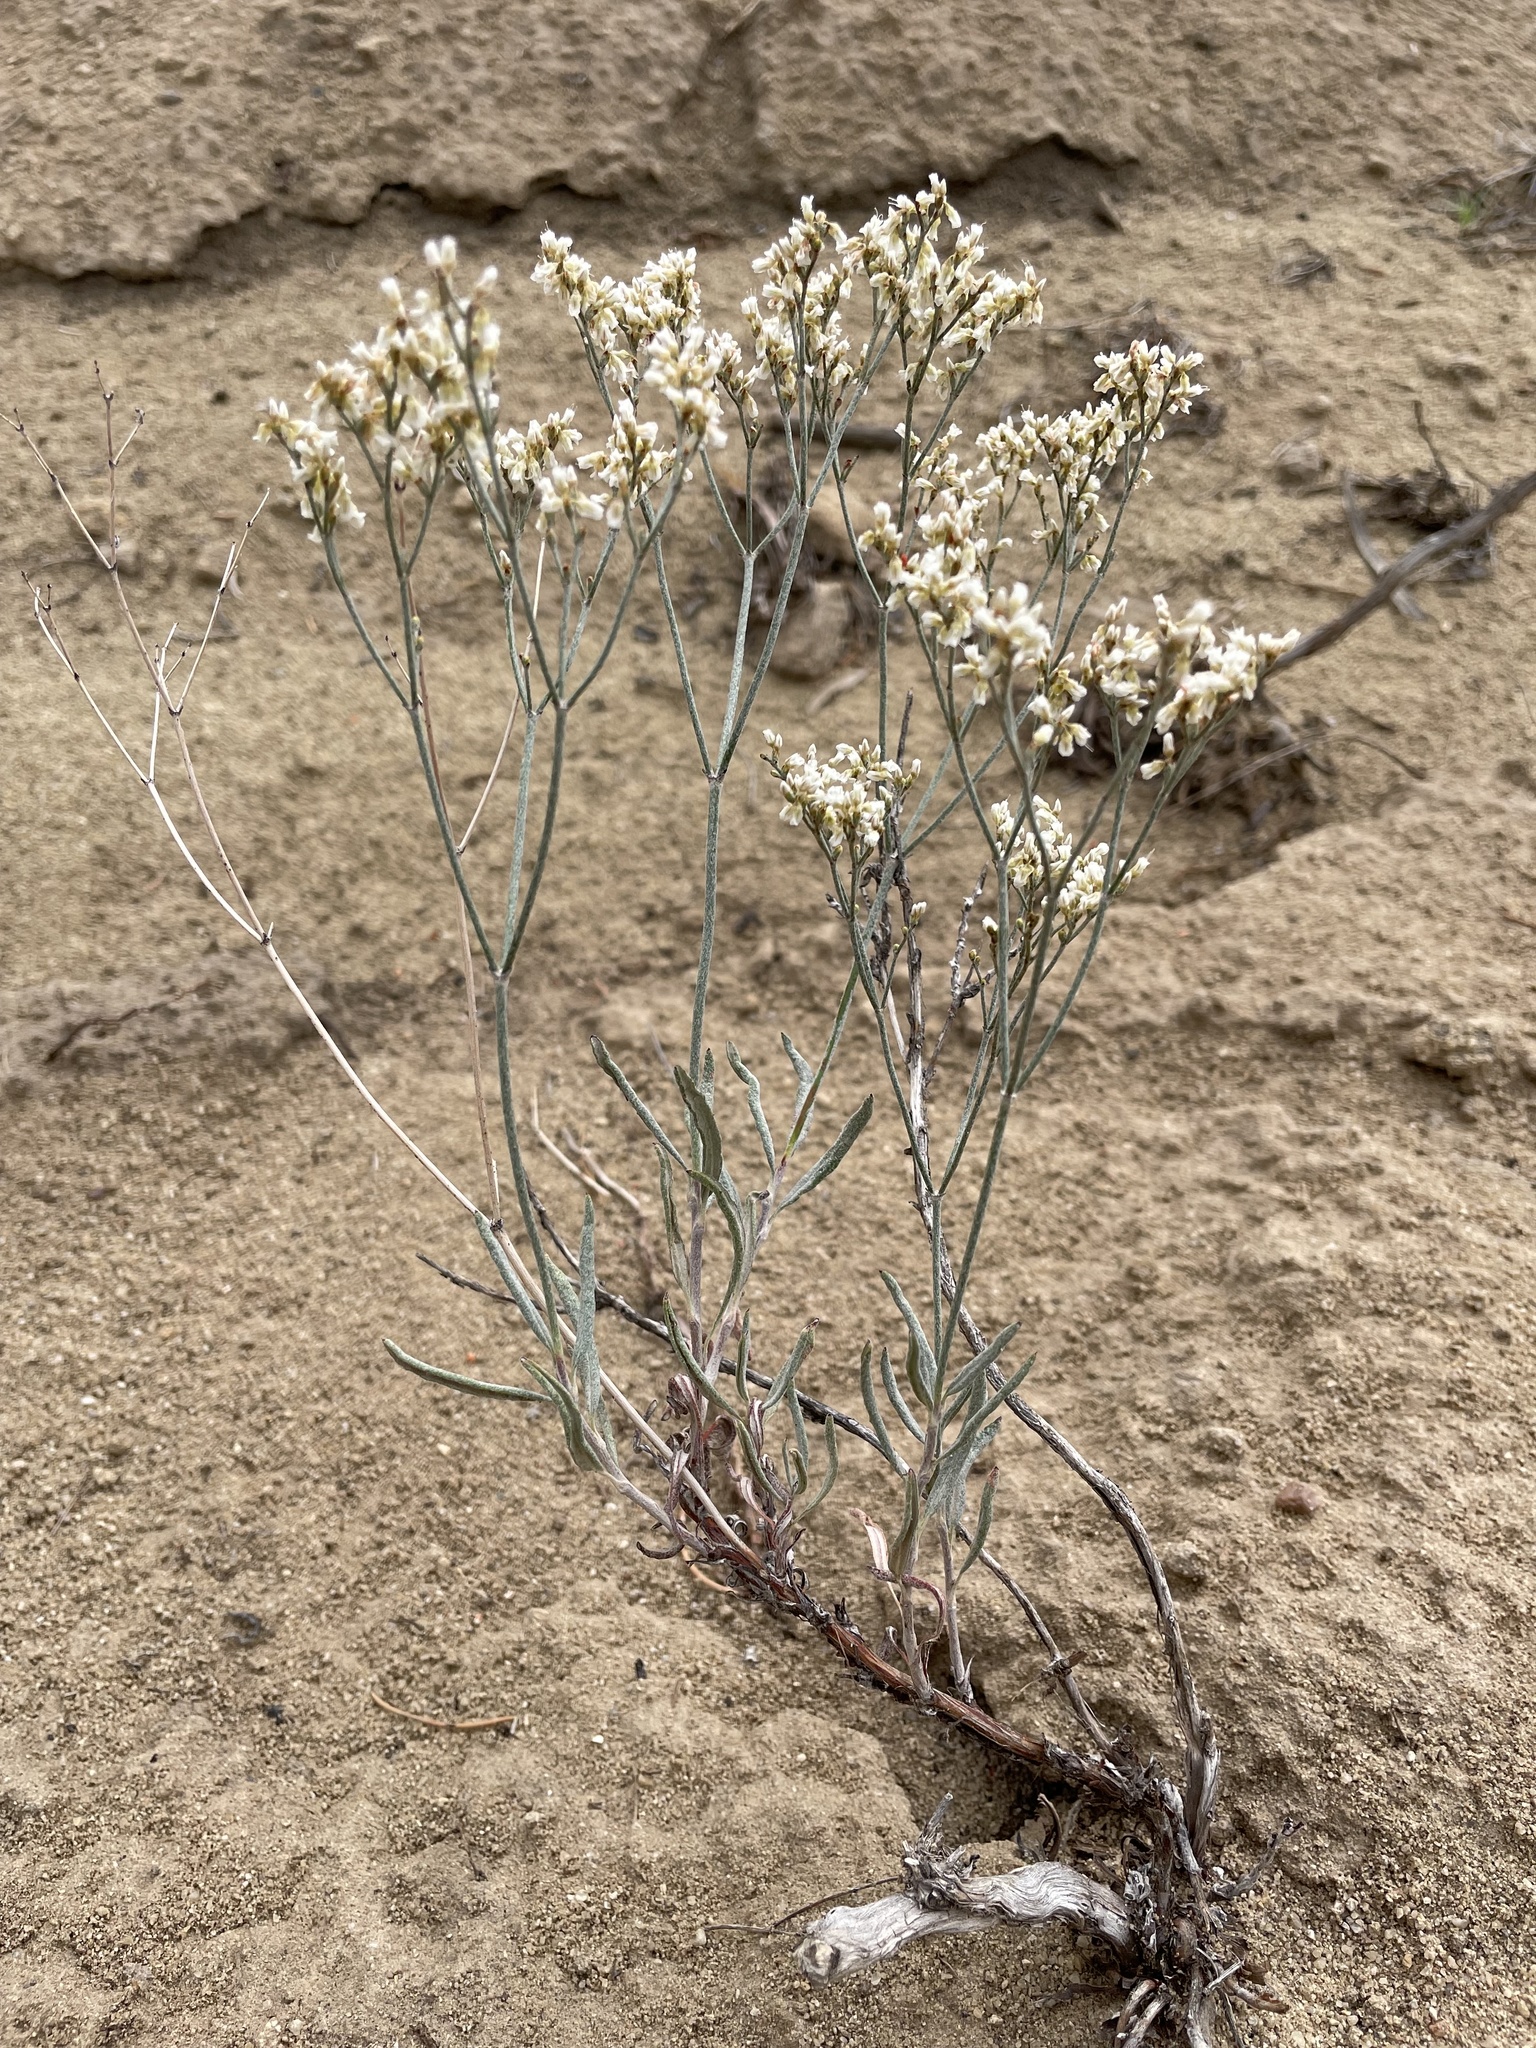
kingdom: Plantae
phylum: Tracheophyta
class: Magnoliopsida
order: Caryophyllales
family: Polygonaceae
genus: Eriogonum
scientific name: Eriogonum leptocladon
